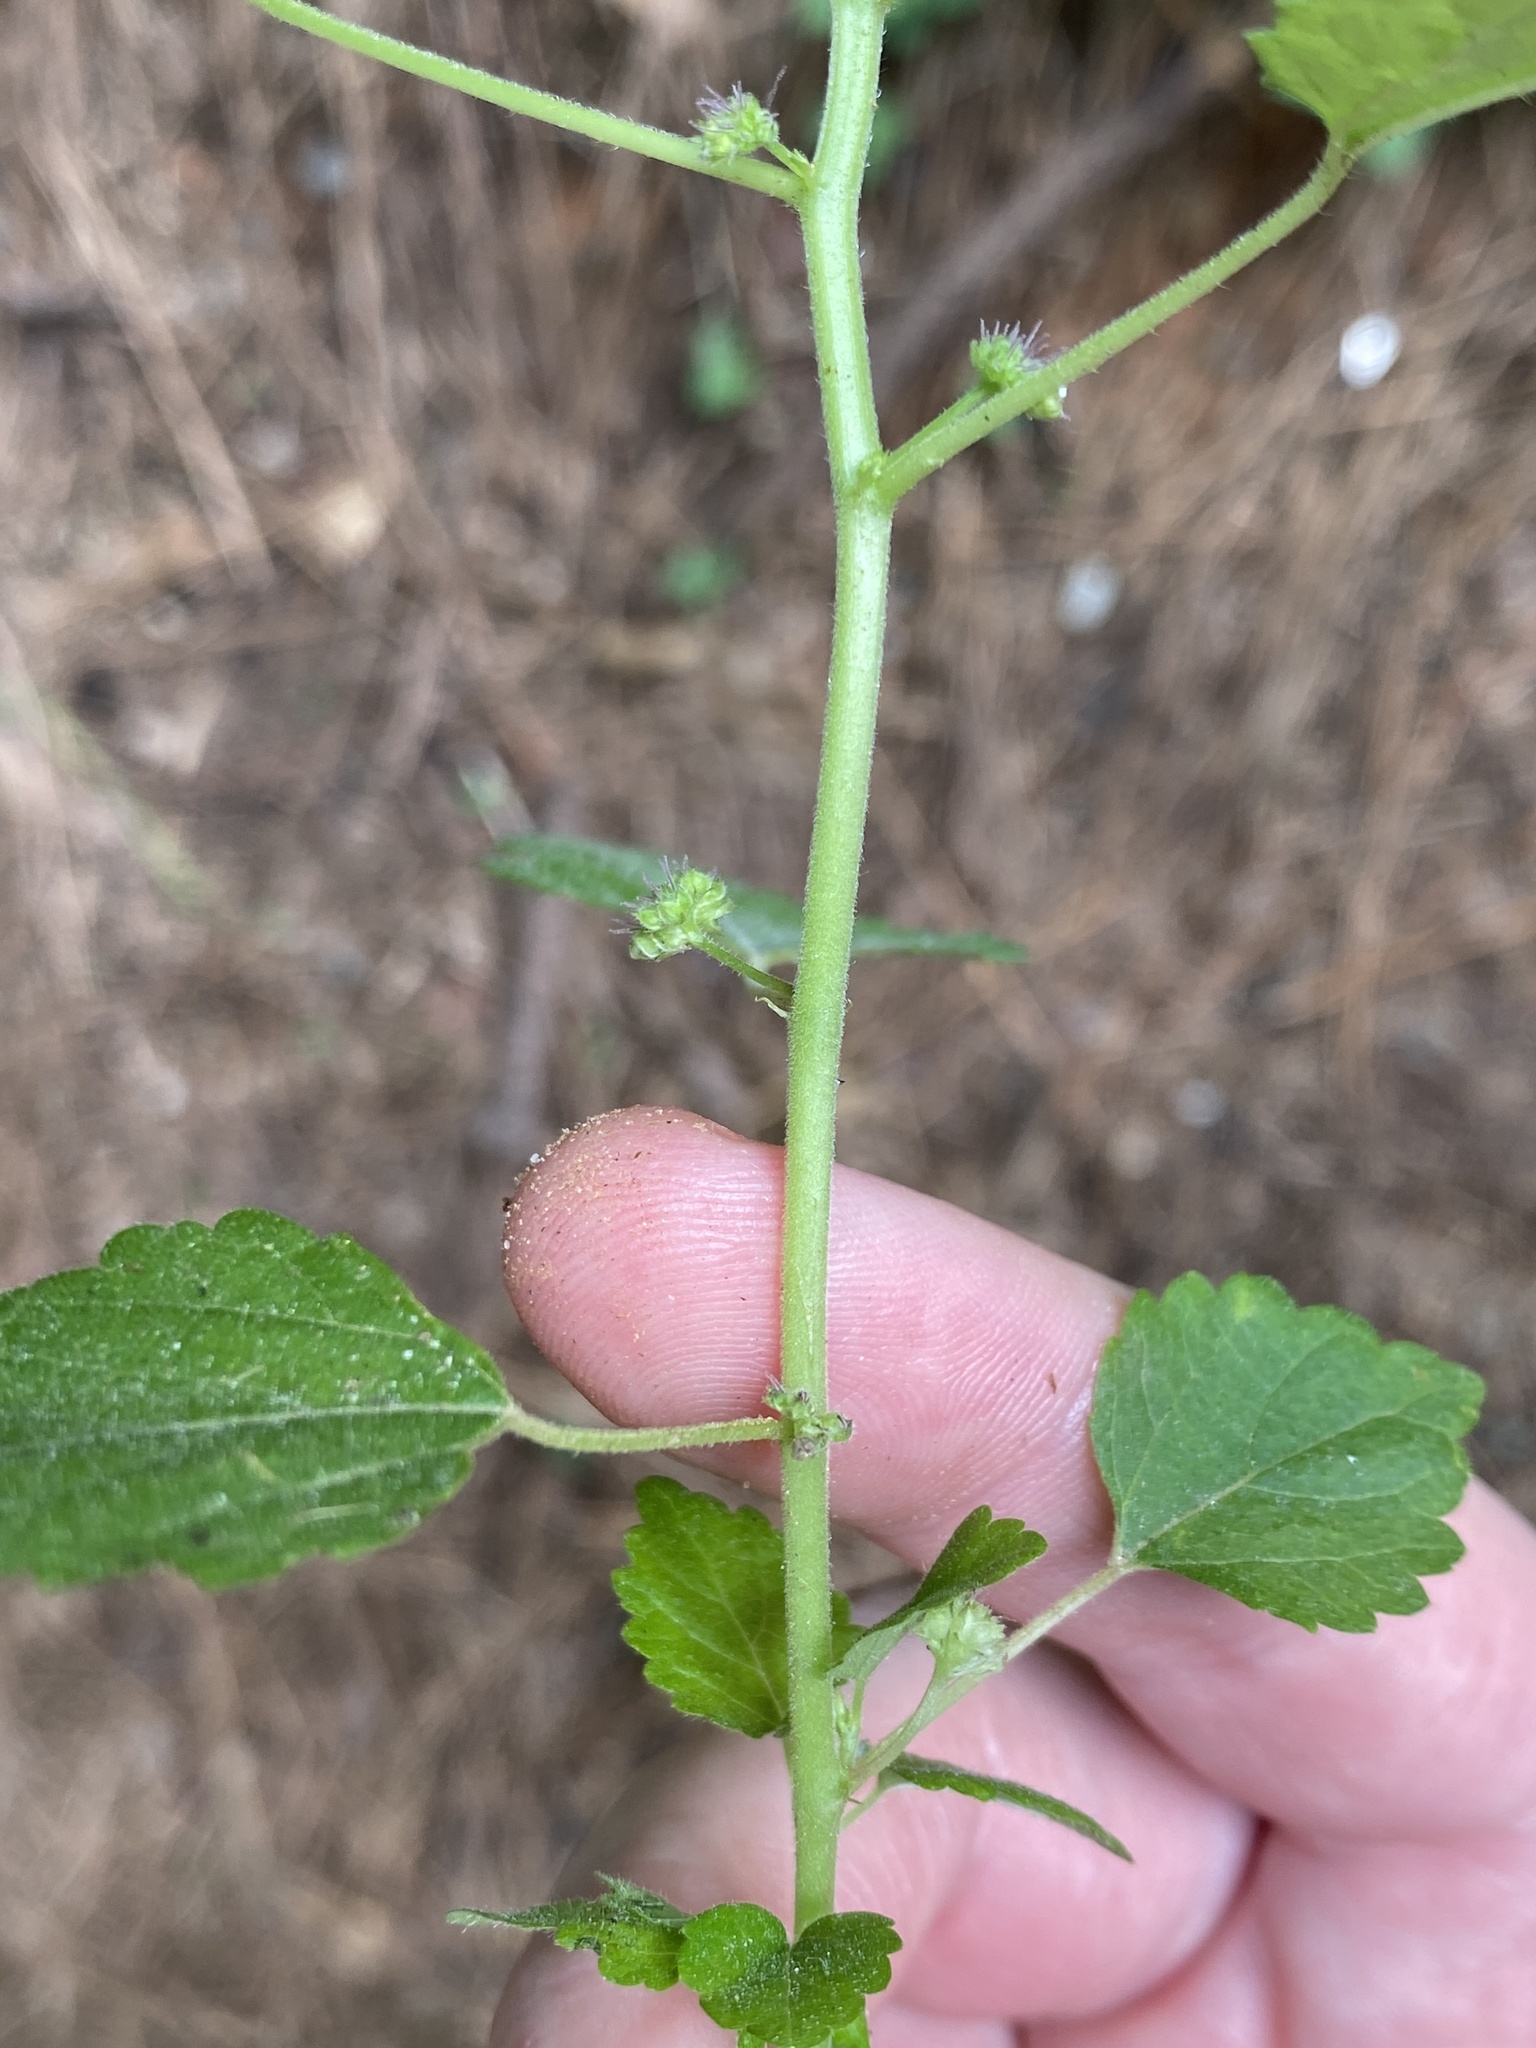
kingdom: Plantae
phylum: Tracheophyta
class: Magnoliopsida
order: Rosales
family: Moraceae
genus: Fatoua
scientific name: Fatoua villosa
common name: Hairy crabweed
